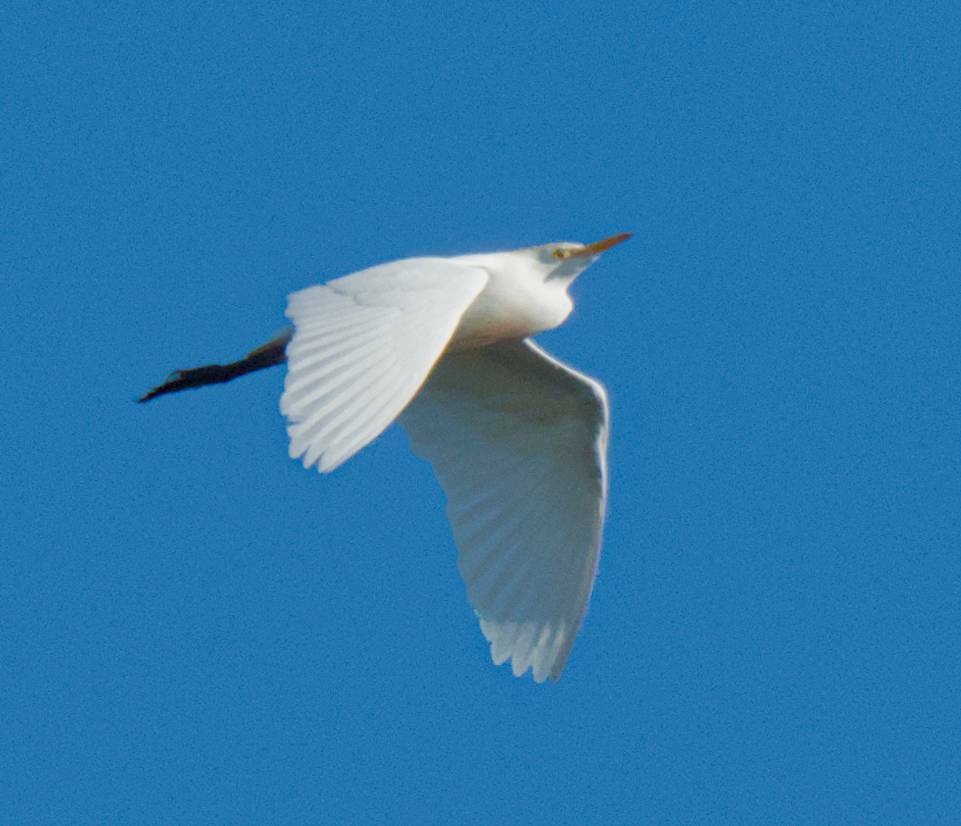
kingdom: Animalia
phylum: Chordata
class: Aves
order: Pelecaniformes
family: Ardeidae
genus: Bubulcus
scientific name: Bubulcus ibis
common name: Cattle egret
